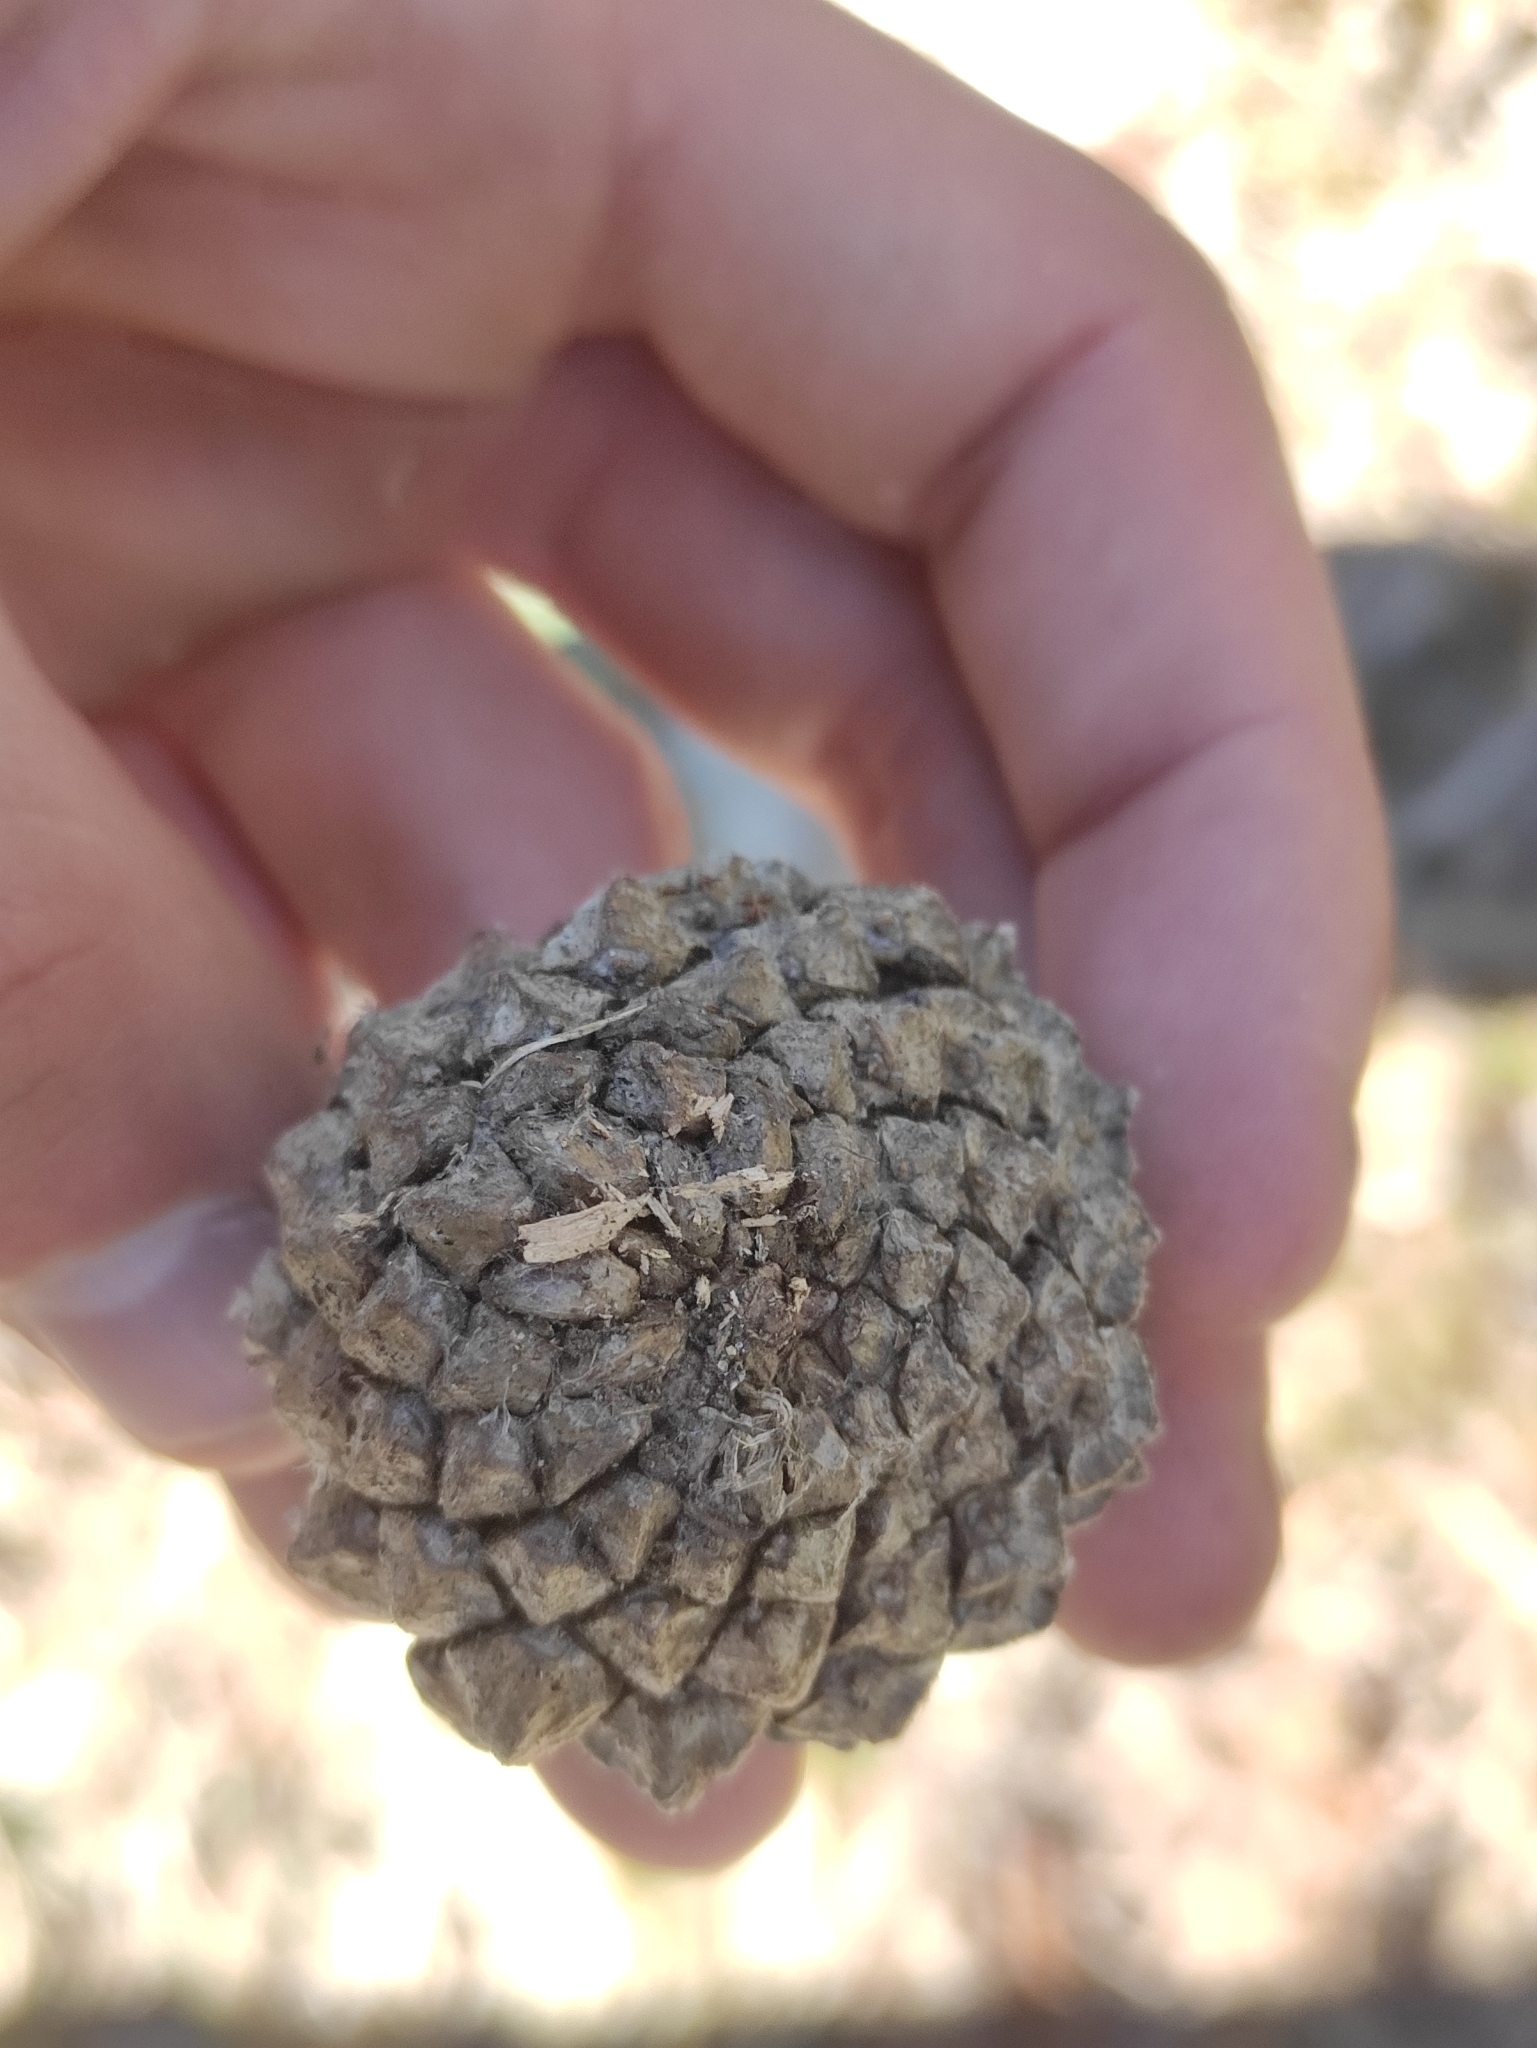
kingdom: Plantae
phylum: Tracheophyta
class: Pinopsida
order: Pinales
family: Pinaceae
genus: Pinus
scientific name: Pinus uncinata
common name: Mountain pine
